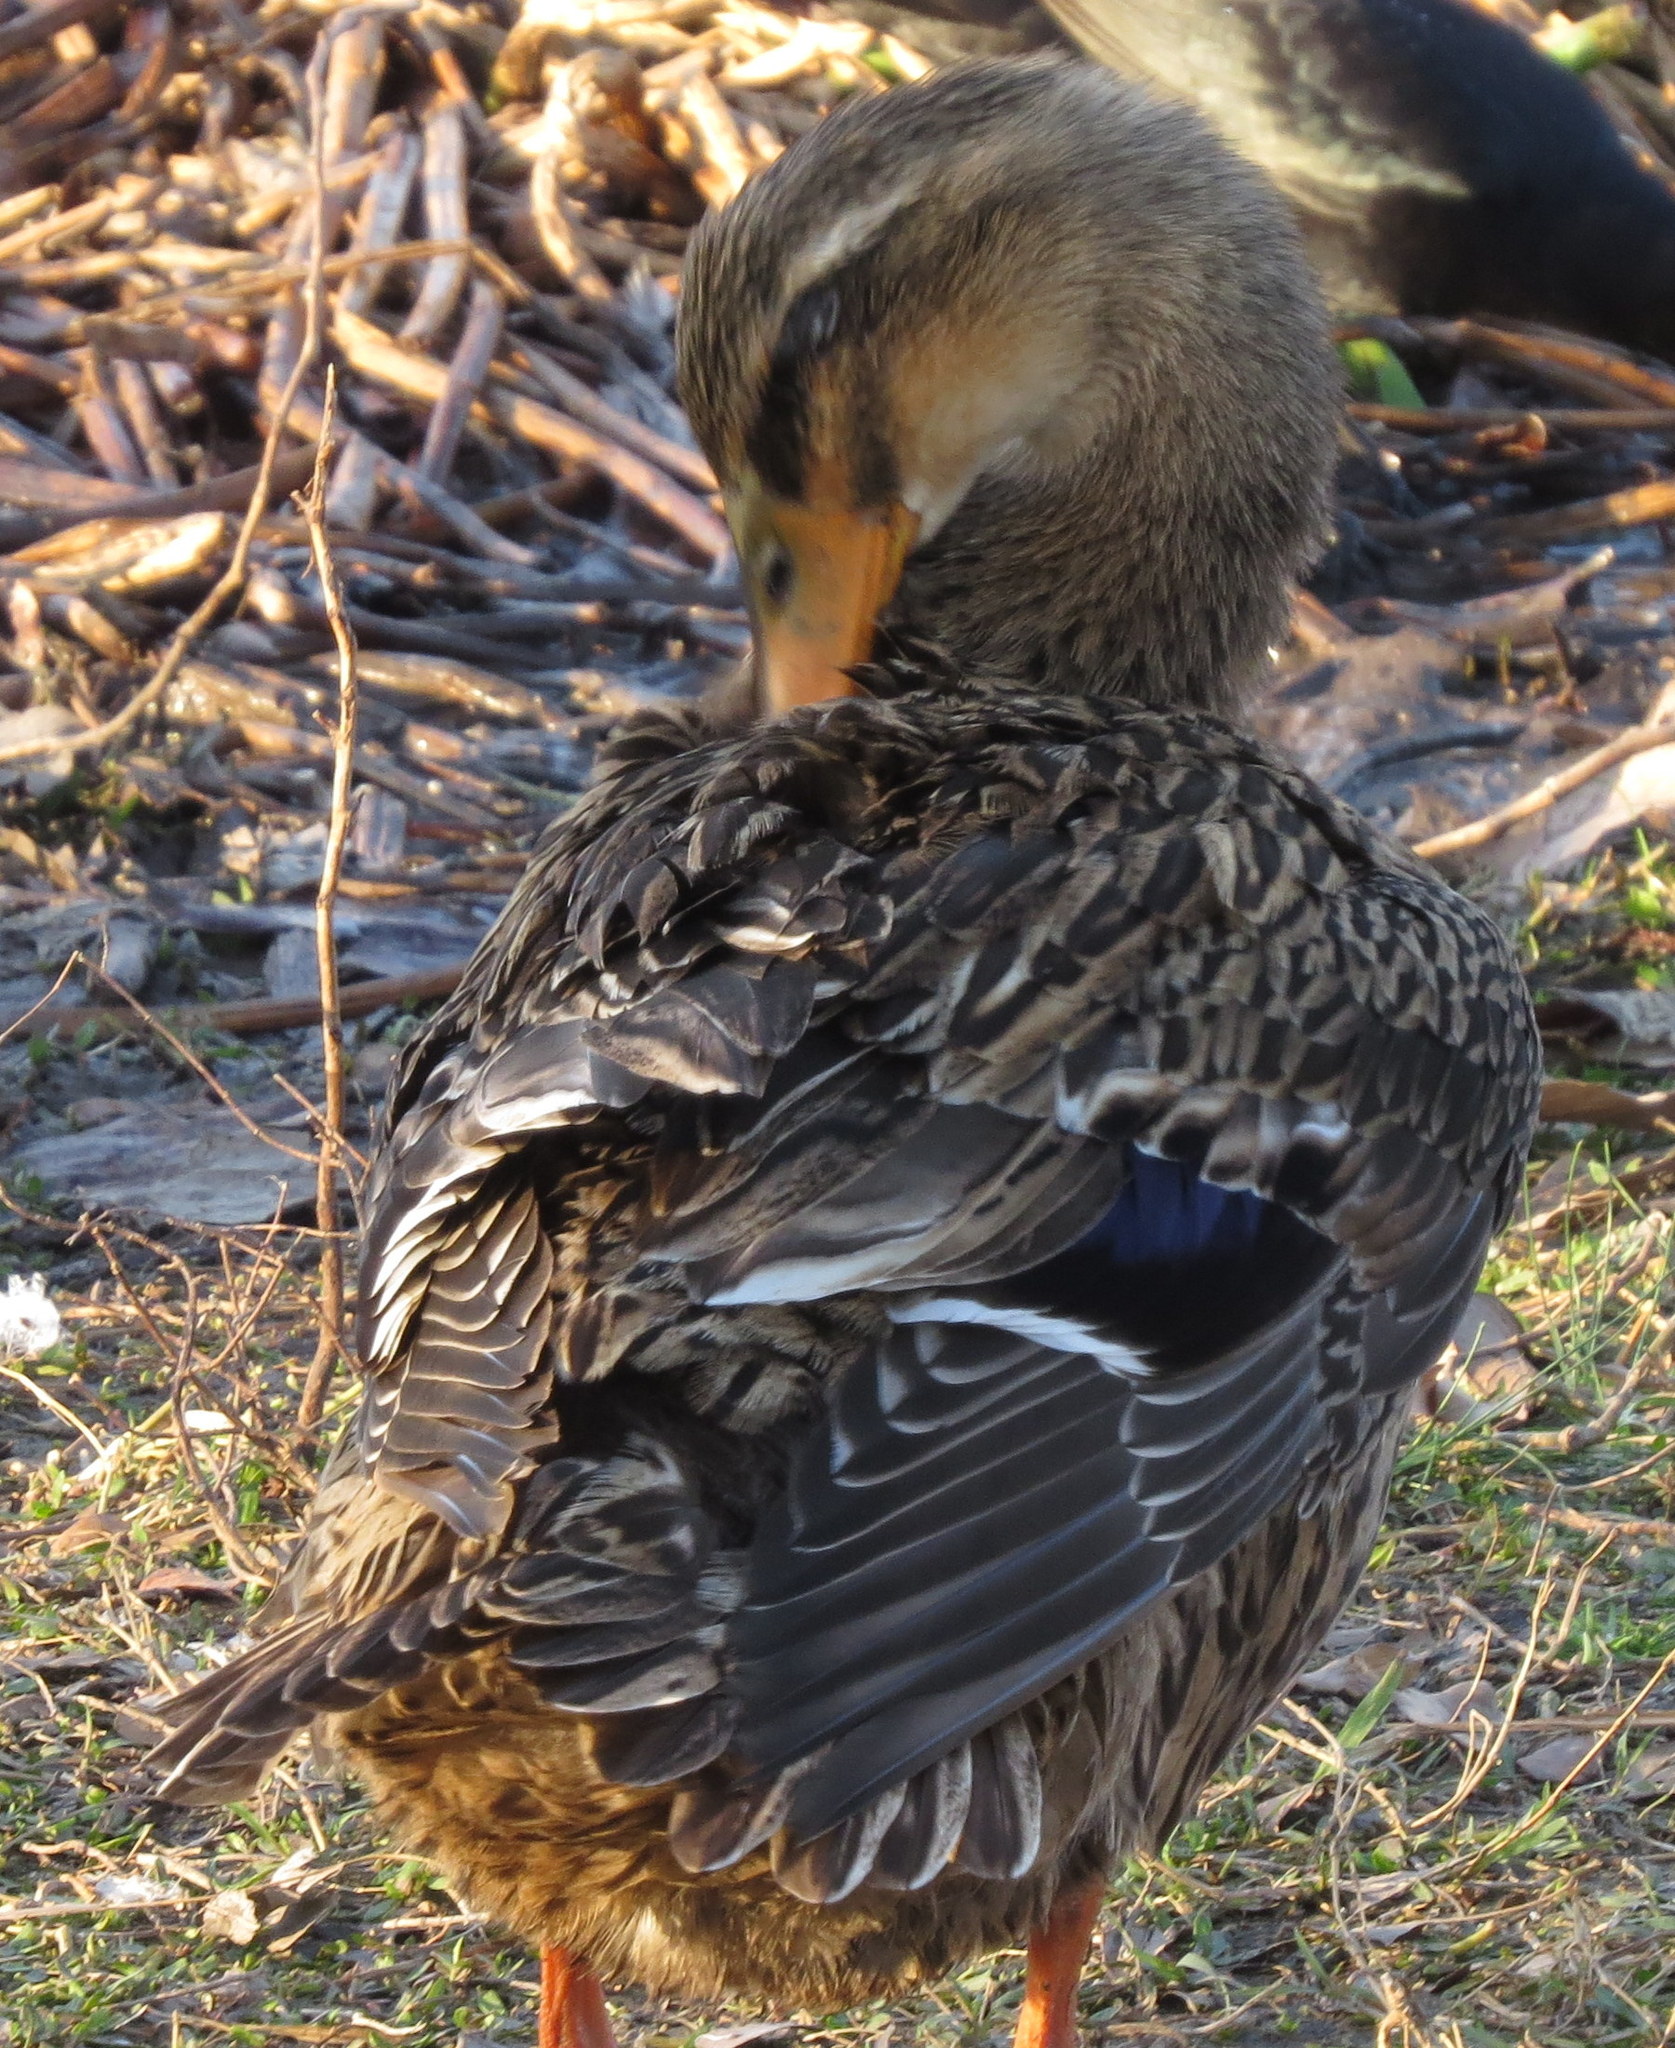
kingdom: Animalia
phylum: Chordata
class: Aves
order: Anseriformes
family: Anatidae
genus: Anas
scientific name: Anas platyrhynchos
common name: Mallard
